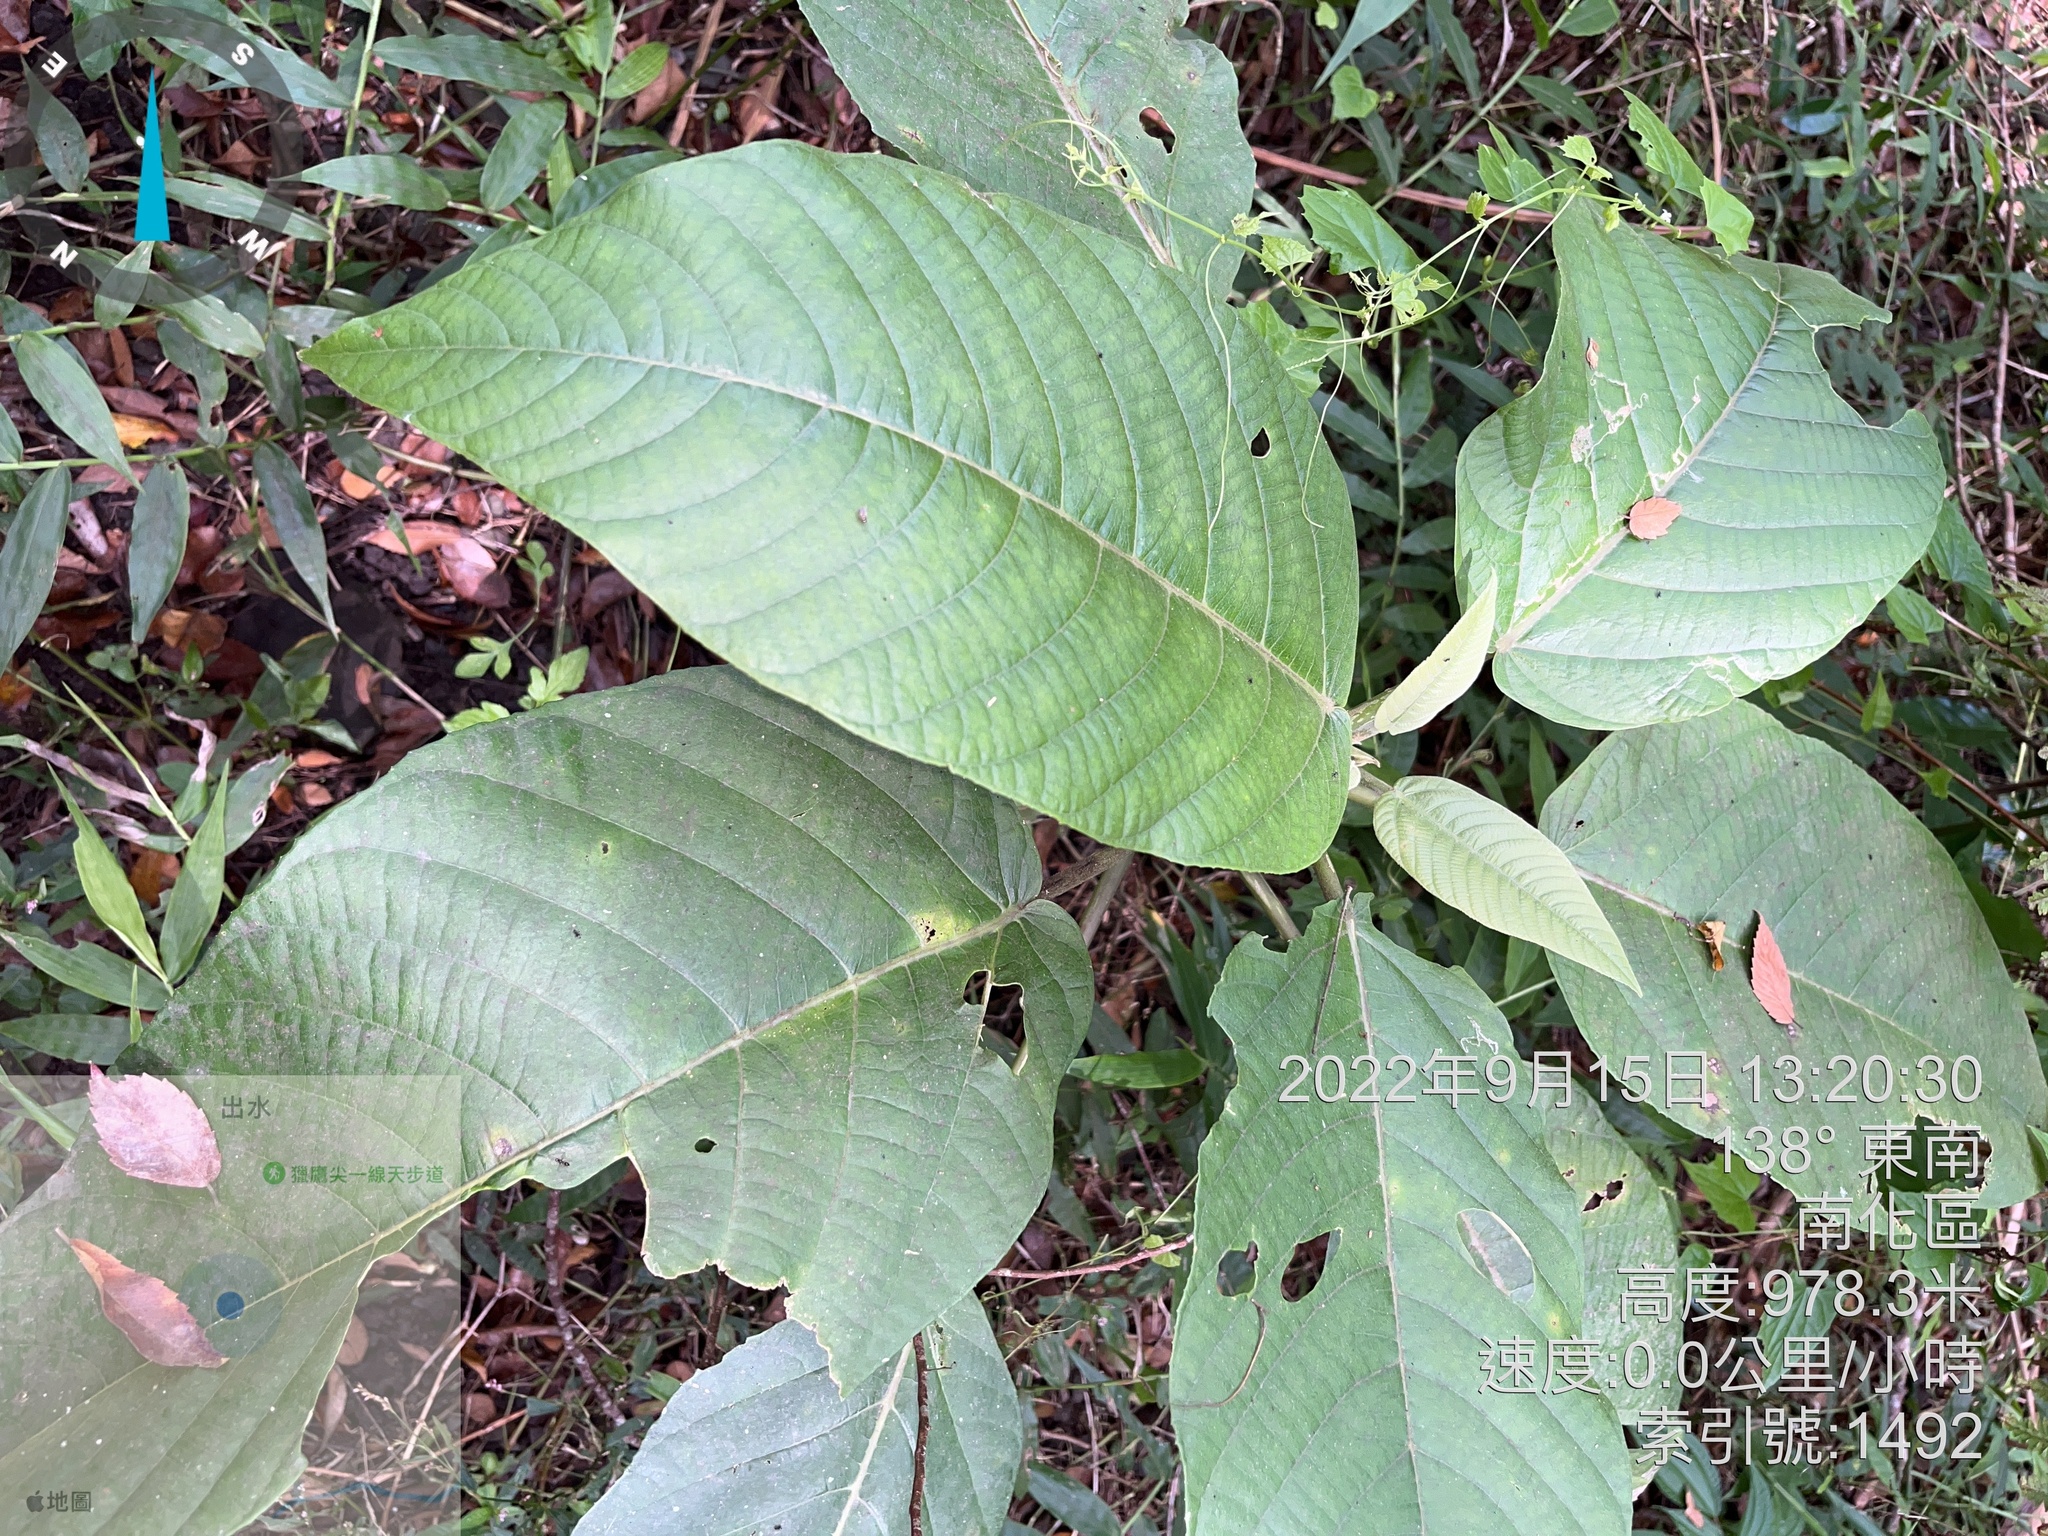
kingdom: Plantae
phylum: Tracheophyta
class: Magnoliopsida
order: Rosales
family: Urticaceae
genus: Dendrocnide
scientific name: Dendrocnide meyeniana
